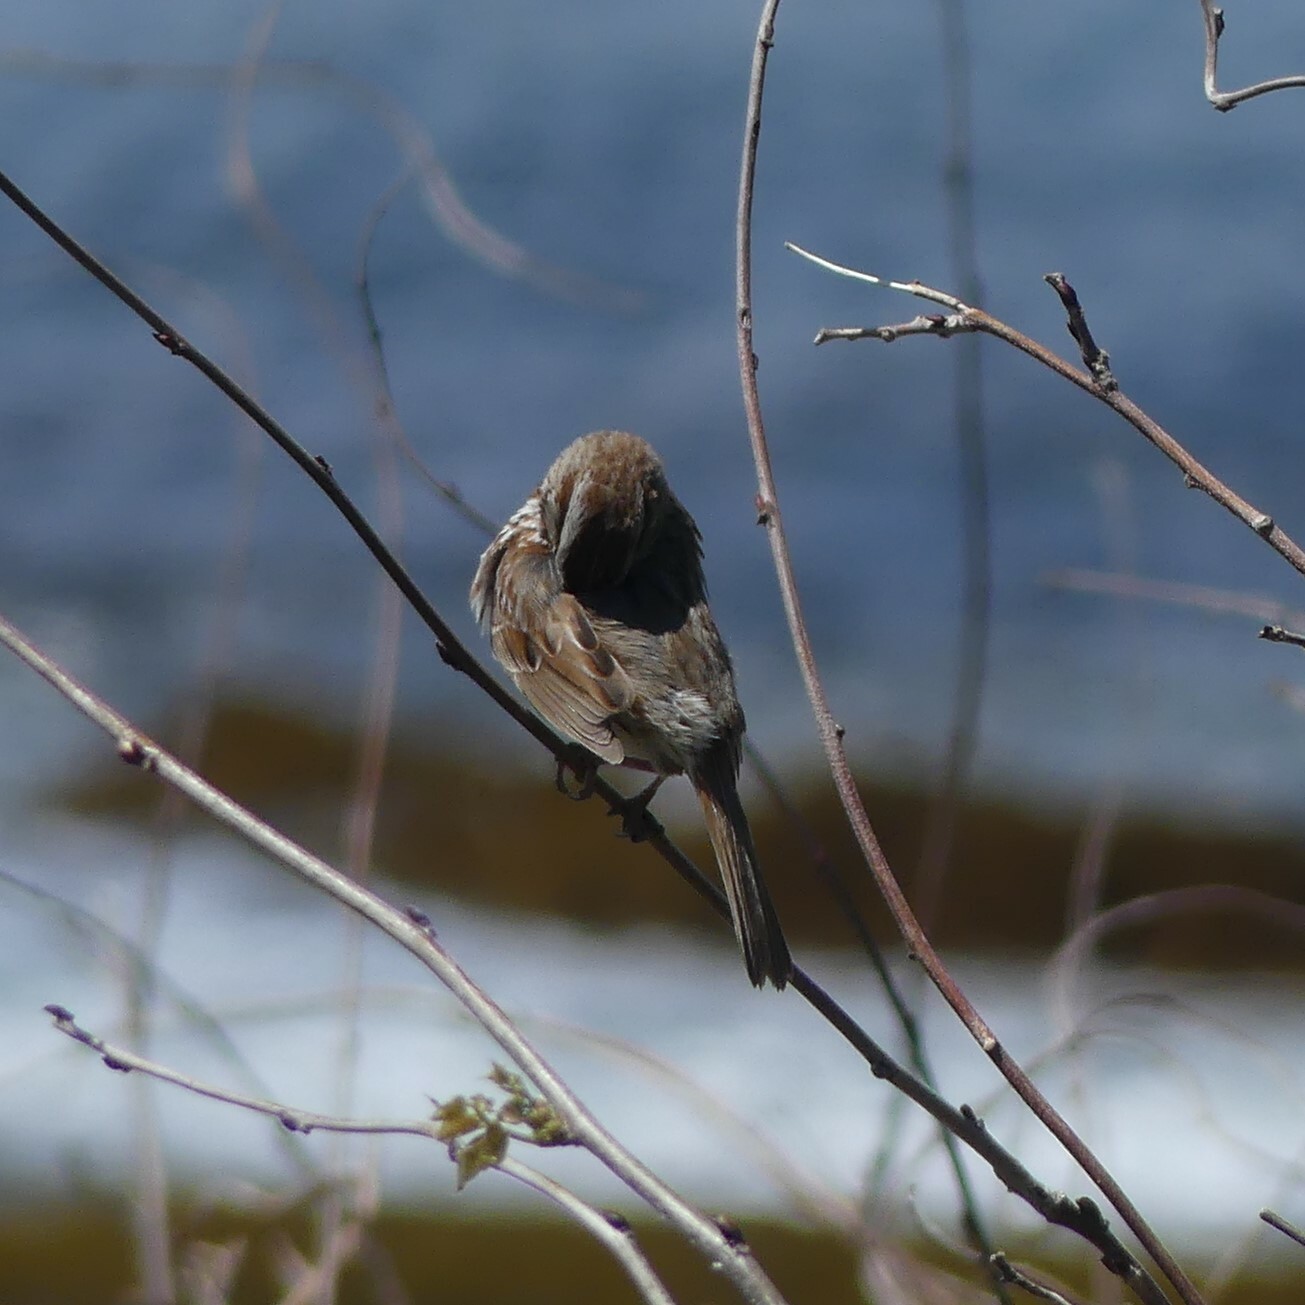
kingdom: Animalia
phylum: Chordata
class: Aves
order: Passeriformes
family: Passerellidae
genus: Melospiza
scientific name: Melospiza melodia
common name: Song sparrow
